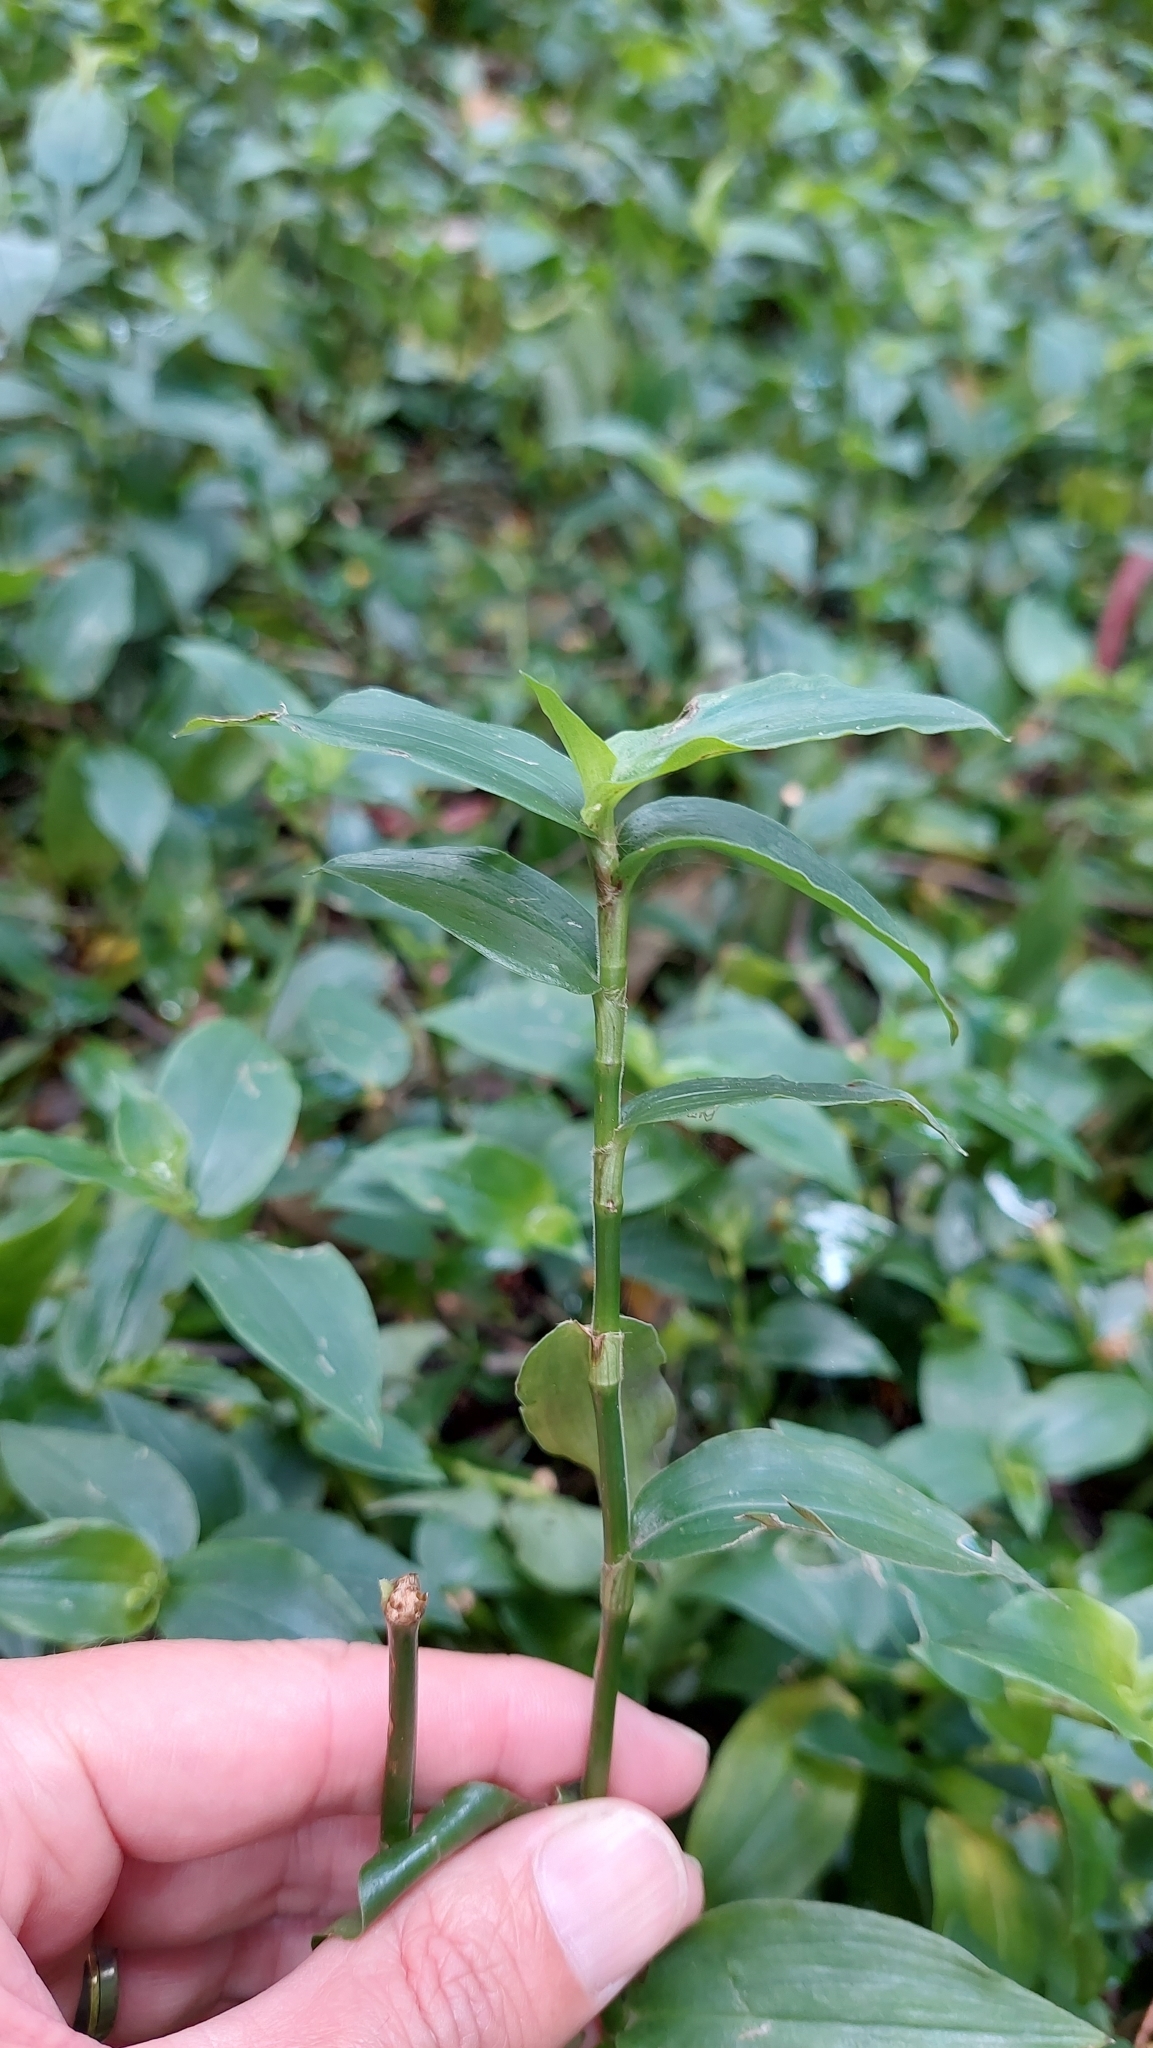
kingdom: Plantae
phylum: Tracheophyta
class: Liliopsida
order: Commelinales
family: Commelinaceae
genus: Tradescantia
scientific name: Tradescantia fluminensis
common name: Wandering-jew
